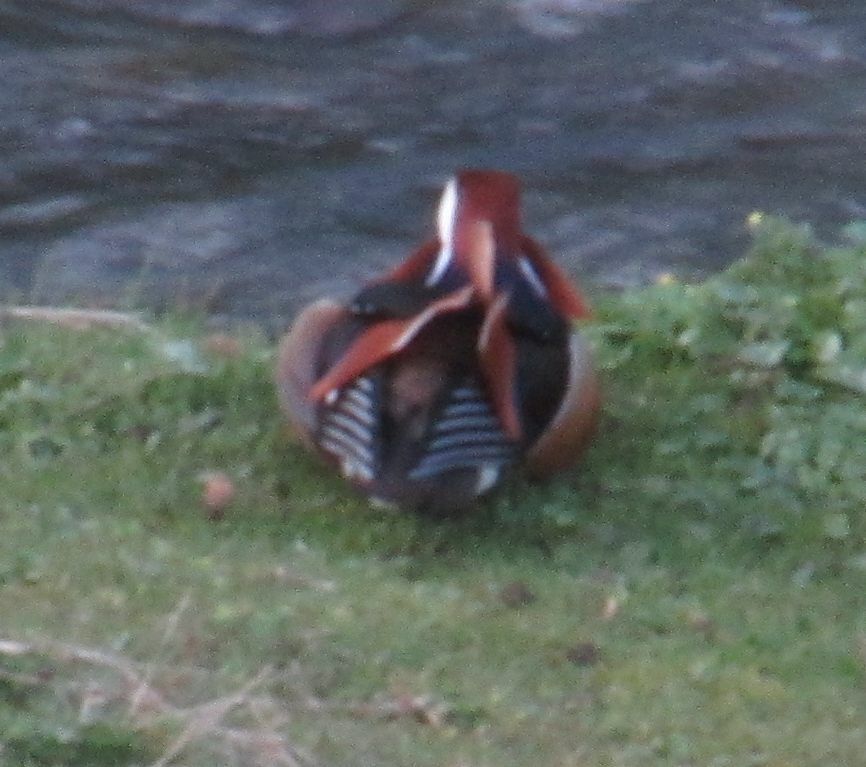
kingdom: Animalia
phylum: Chordata
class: Aves
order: Anseriformes
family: Anatidae
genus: Aix
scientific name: Aix galericulata
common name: Mandarin duck
